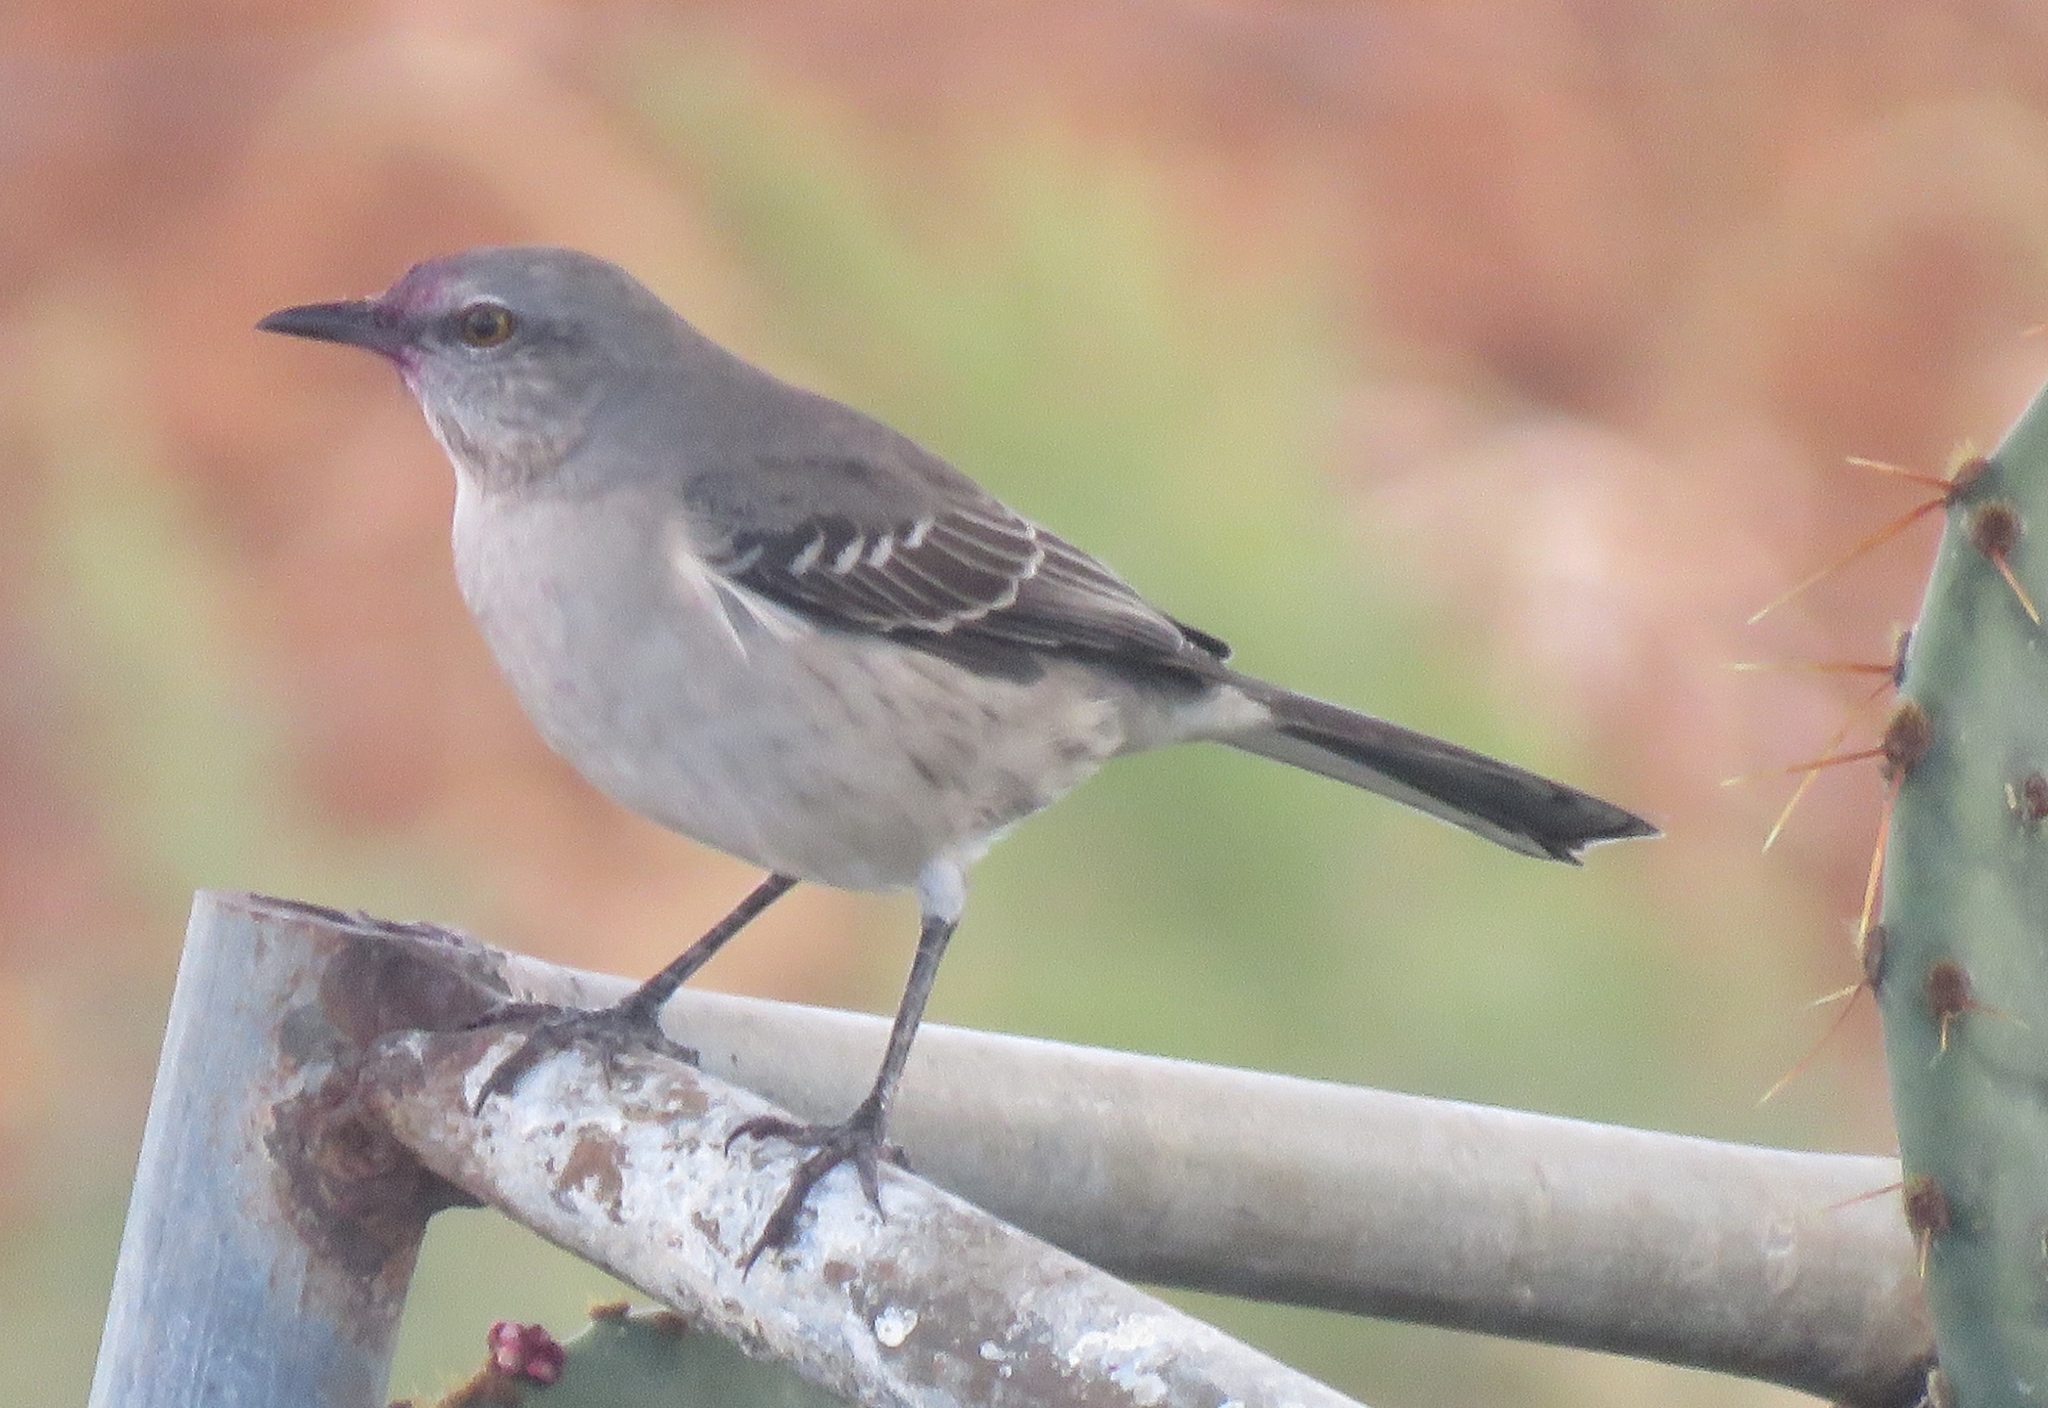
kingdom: Animalia
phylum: Chordata
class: Aves
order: Passeriformes
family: Mimidae
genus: Mimus
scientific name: Mimus polyglottos
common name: Northern mockingbird
